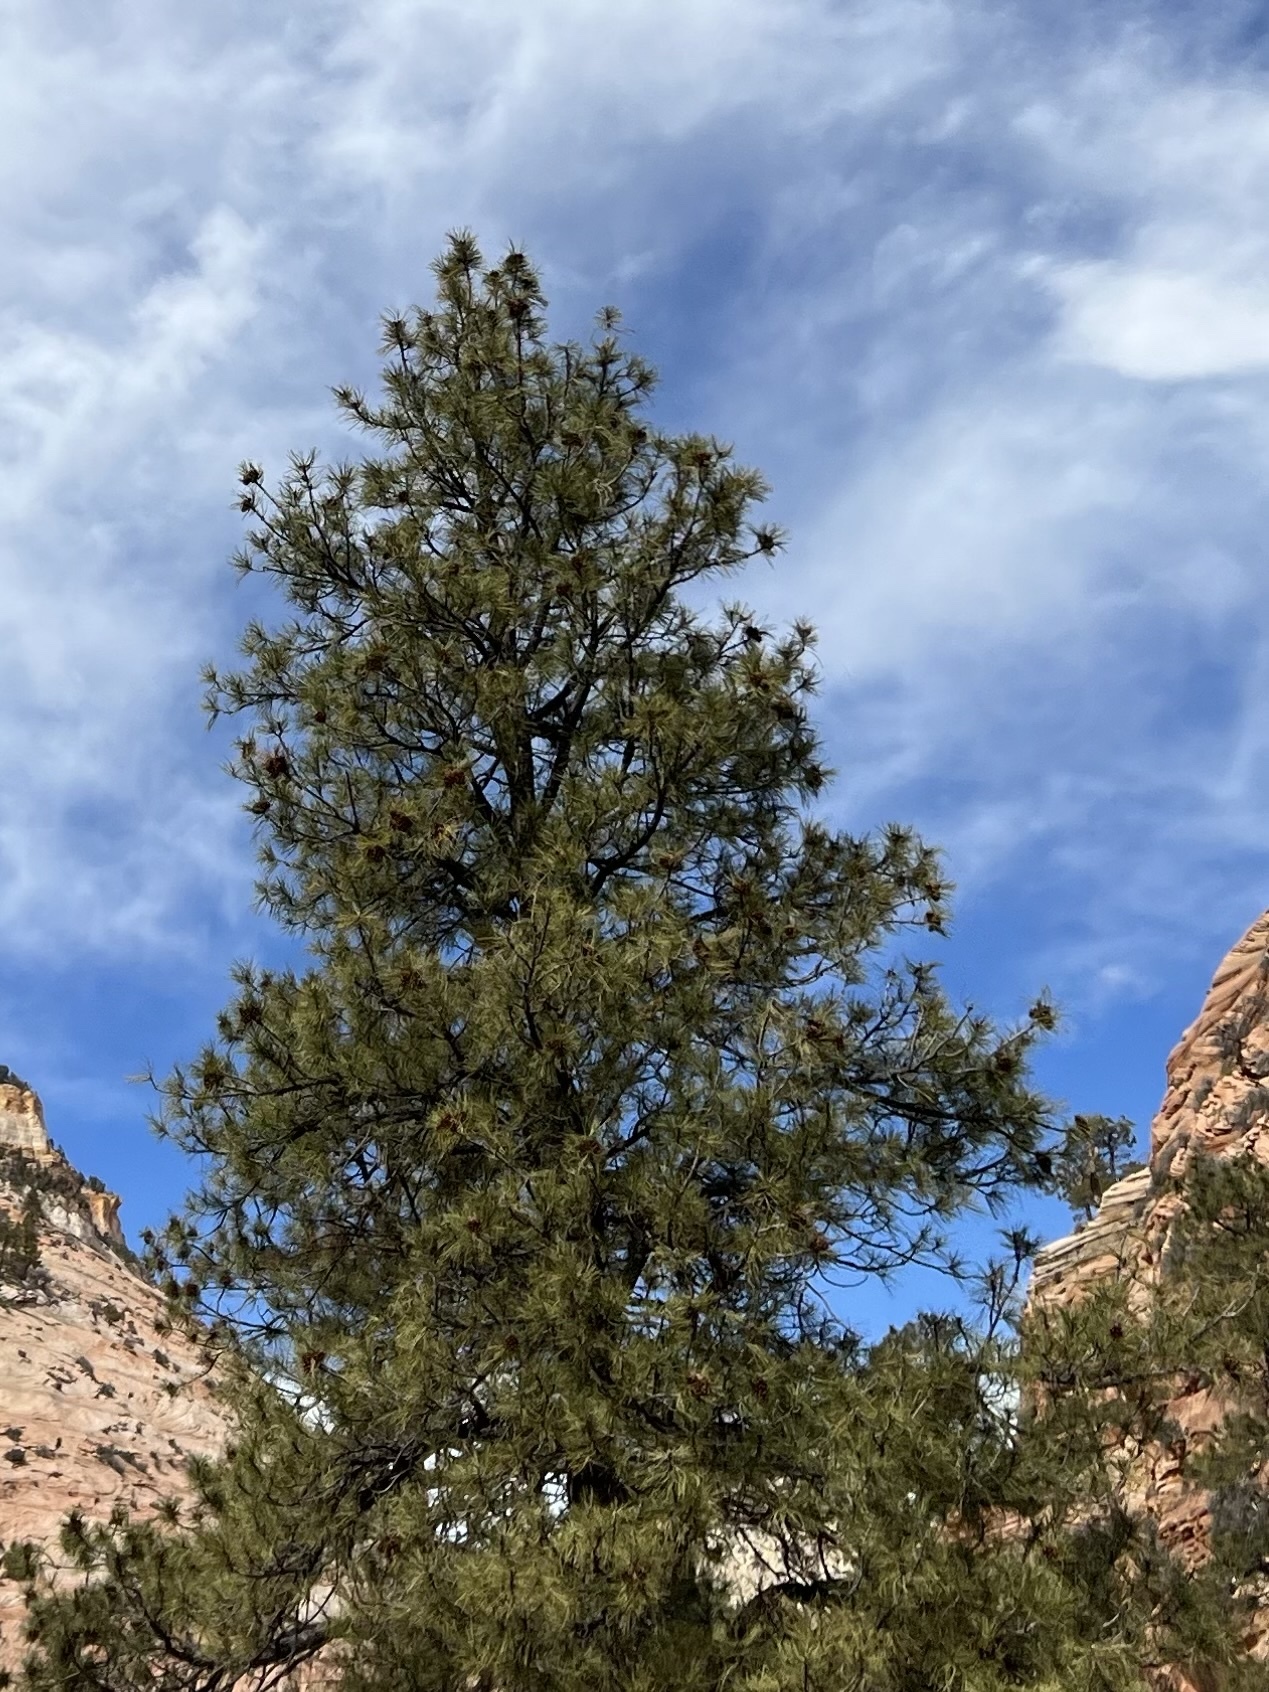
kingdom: Plantae
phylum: Tracheophyta
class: Pinopsida
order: Pinales
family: Pinaceae
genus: Pinus
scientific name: Pinus ponderosa
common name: Western yellow-pine
